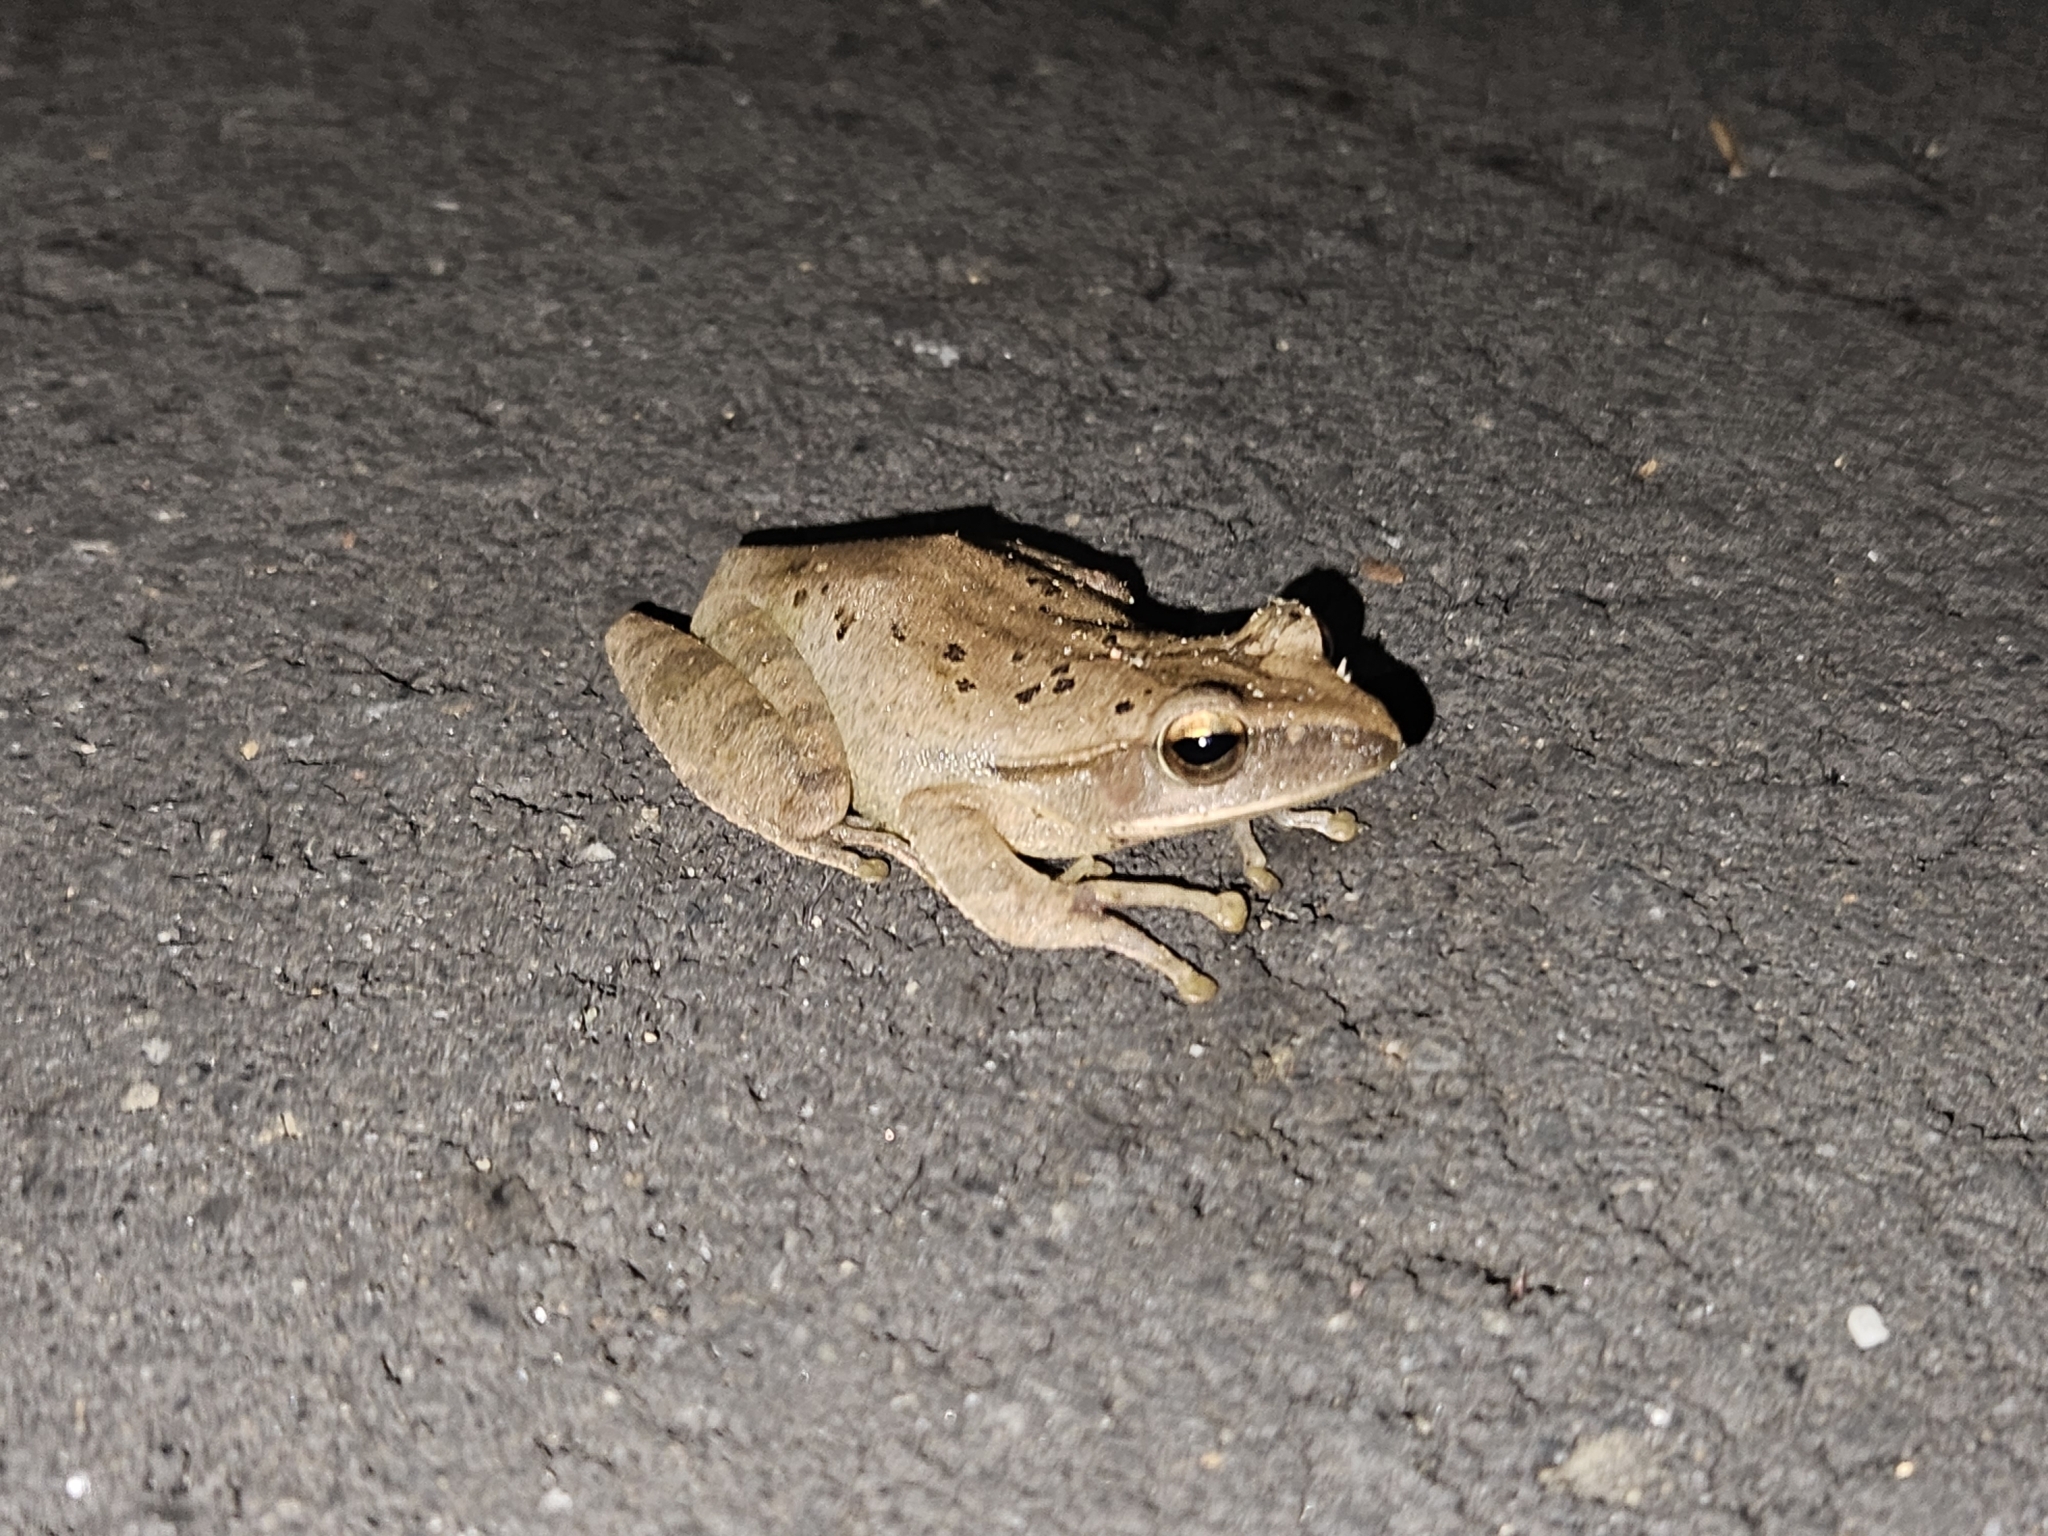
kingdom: Animalia
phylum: Chordata
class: Amphibia
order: Anura
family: Rhacophoridae
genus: Polypedates
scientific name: Polypedates megacephalus
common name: Hong kong whipping frog
